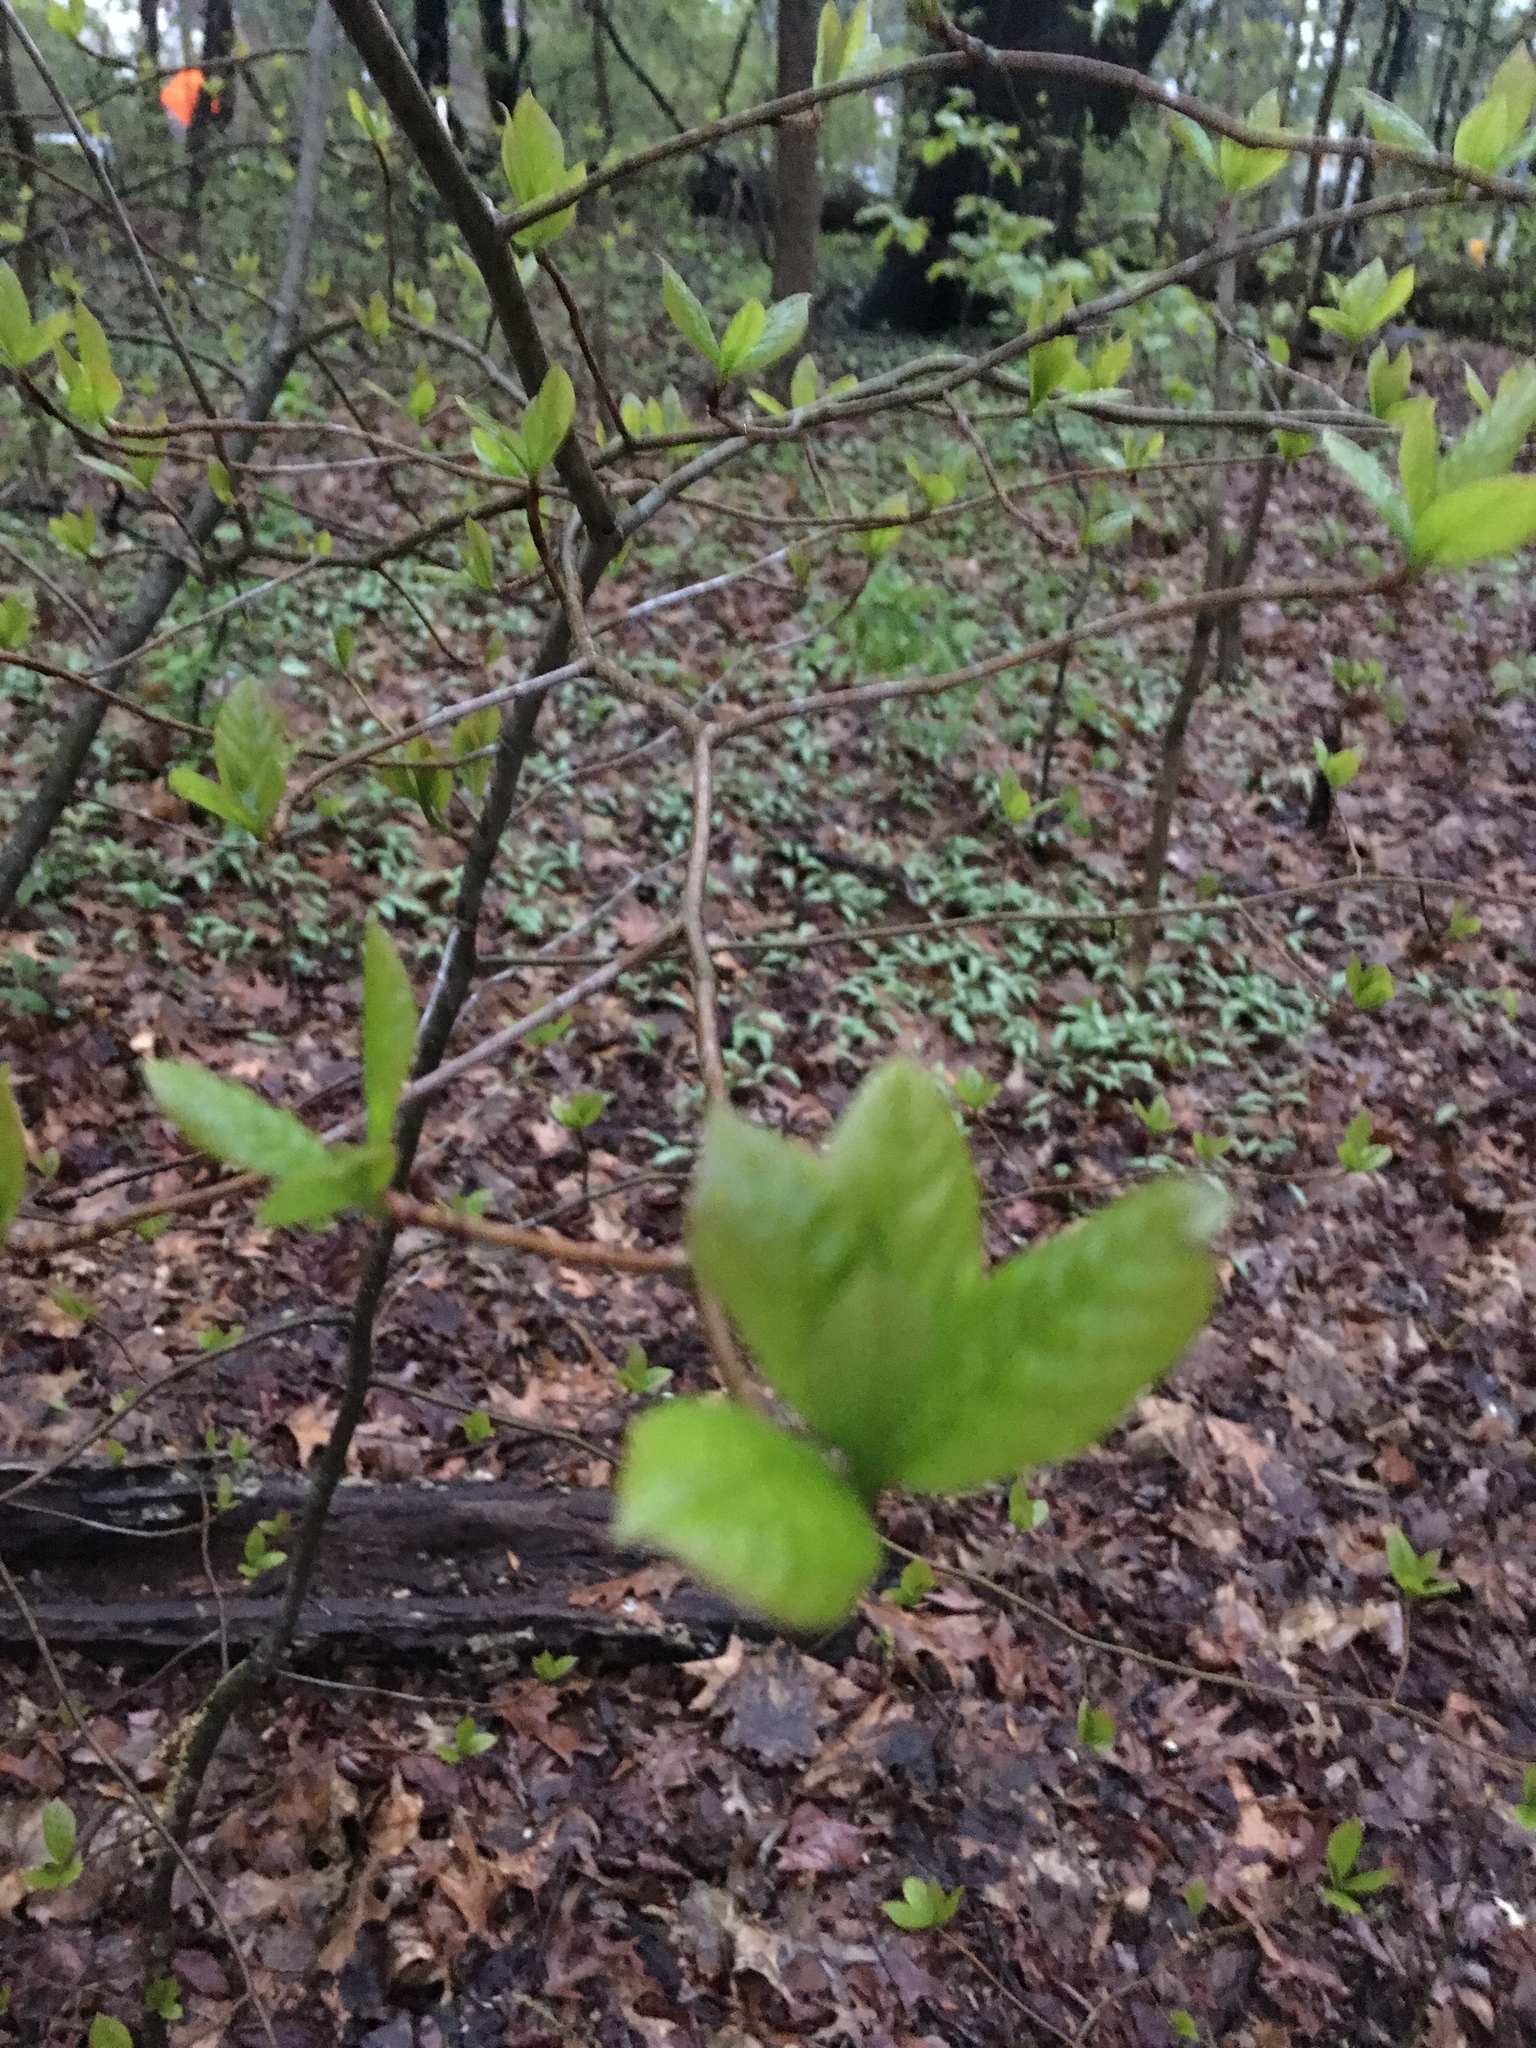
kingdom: Plantae
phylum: Tracheophyta
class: Magnoliopsida
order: Cornales
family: Nyssaceae
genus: Nyssa
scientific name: Nyssa sylvatica
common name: Black tupelo
